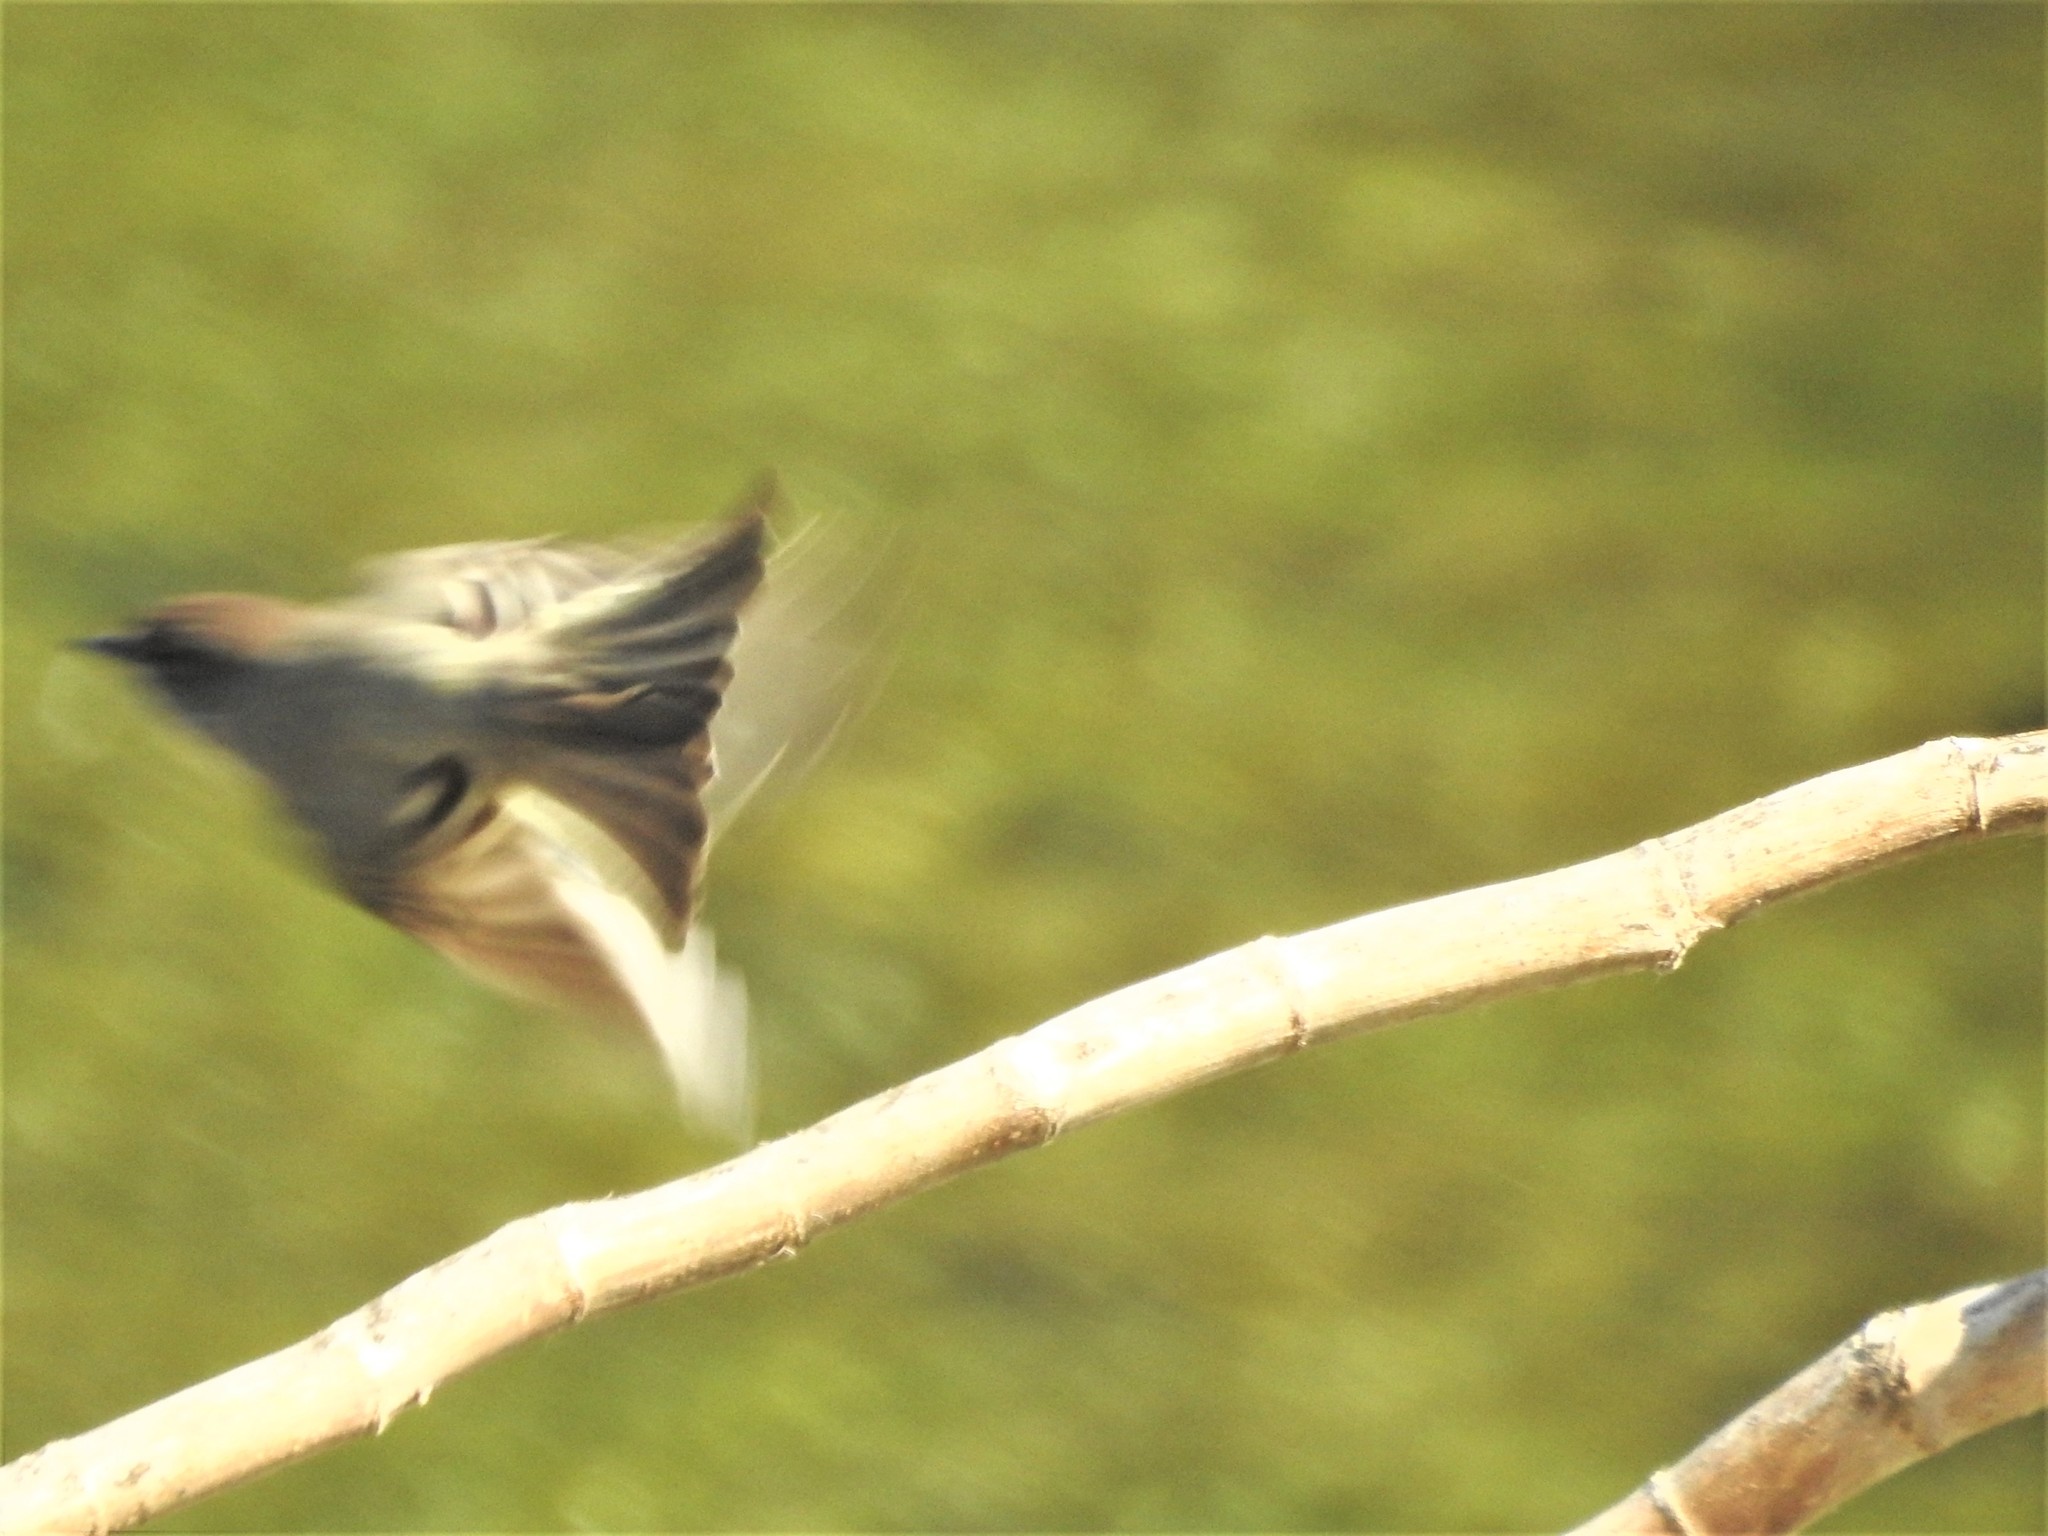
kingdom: Animalia
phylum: Chordata
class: Aves
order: Passeriformes
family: Tyrannidae
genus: Sayornis
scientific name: Sayornis phoebe
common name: Eastern phoebe
